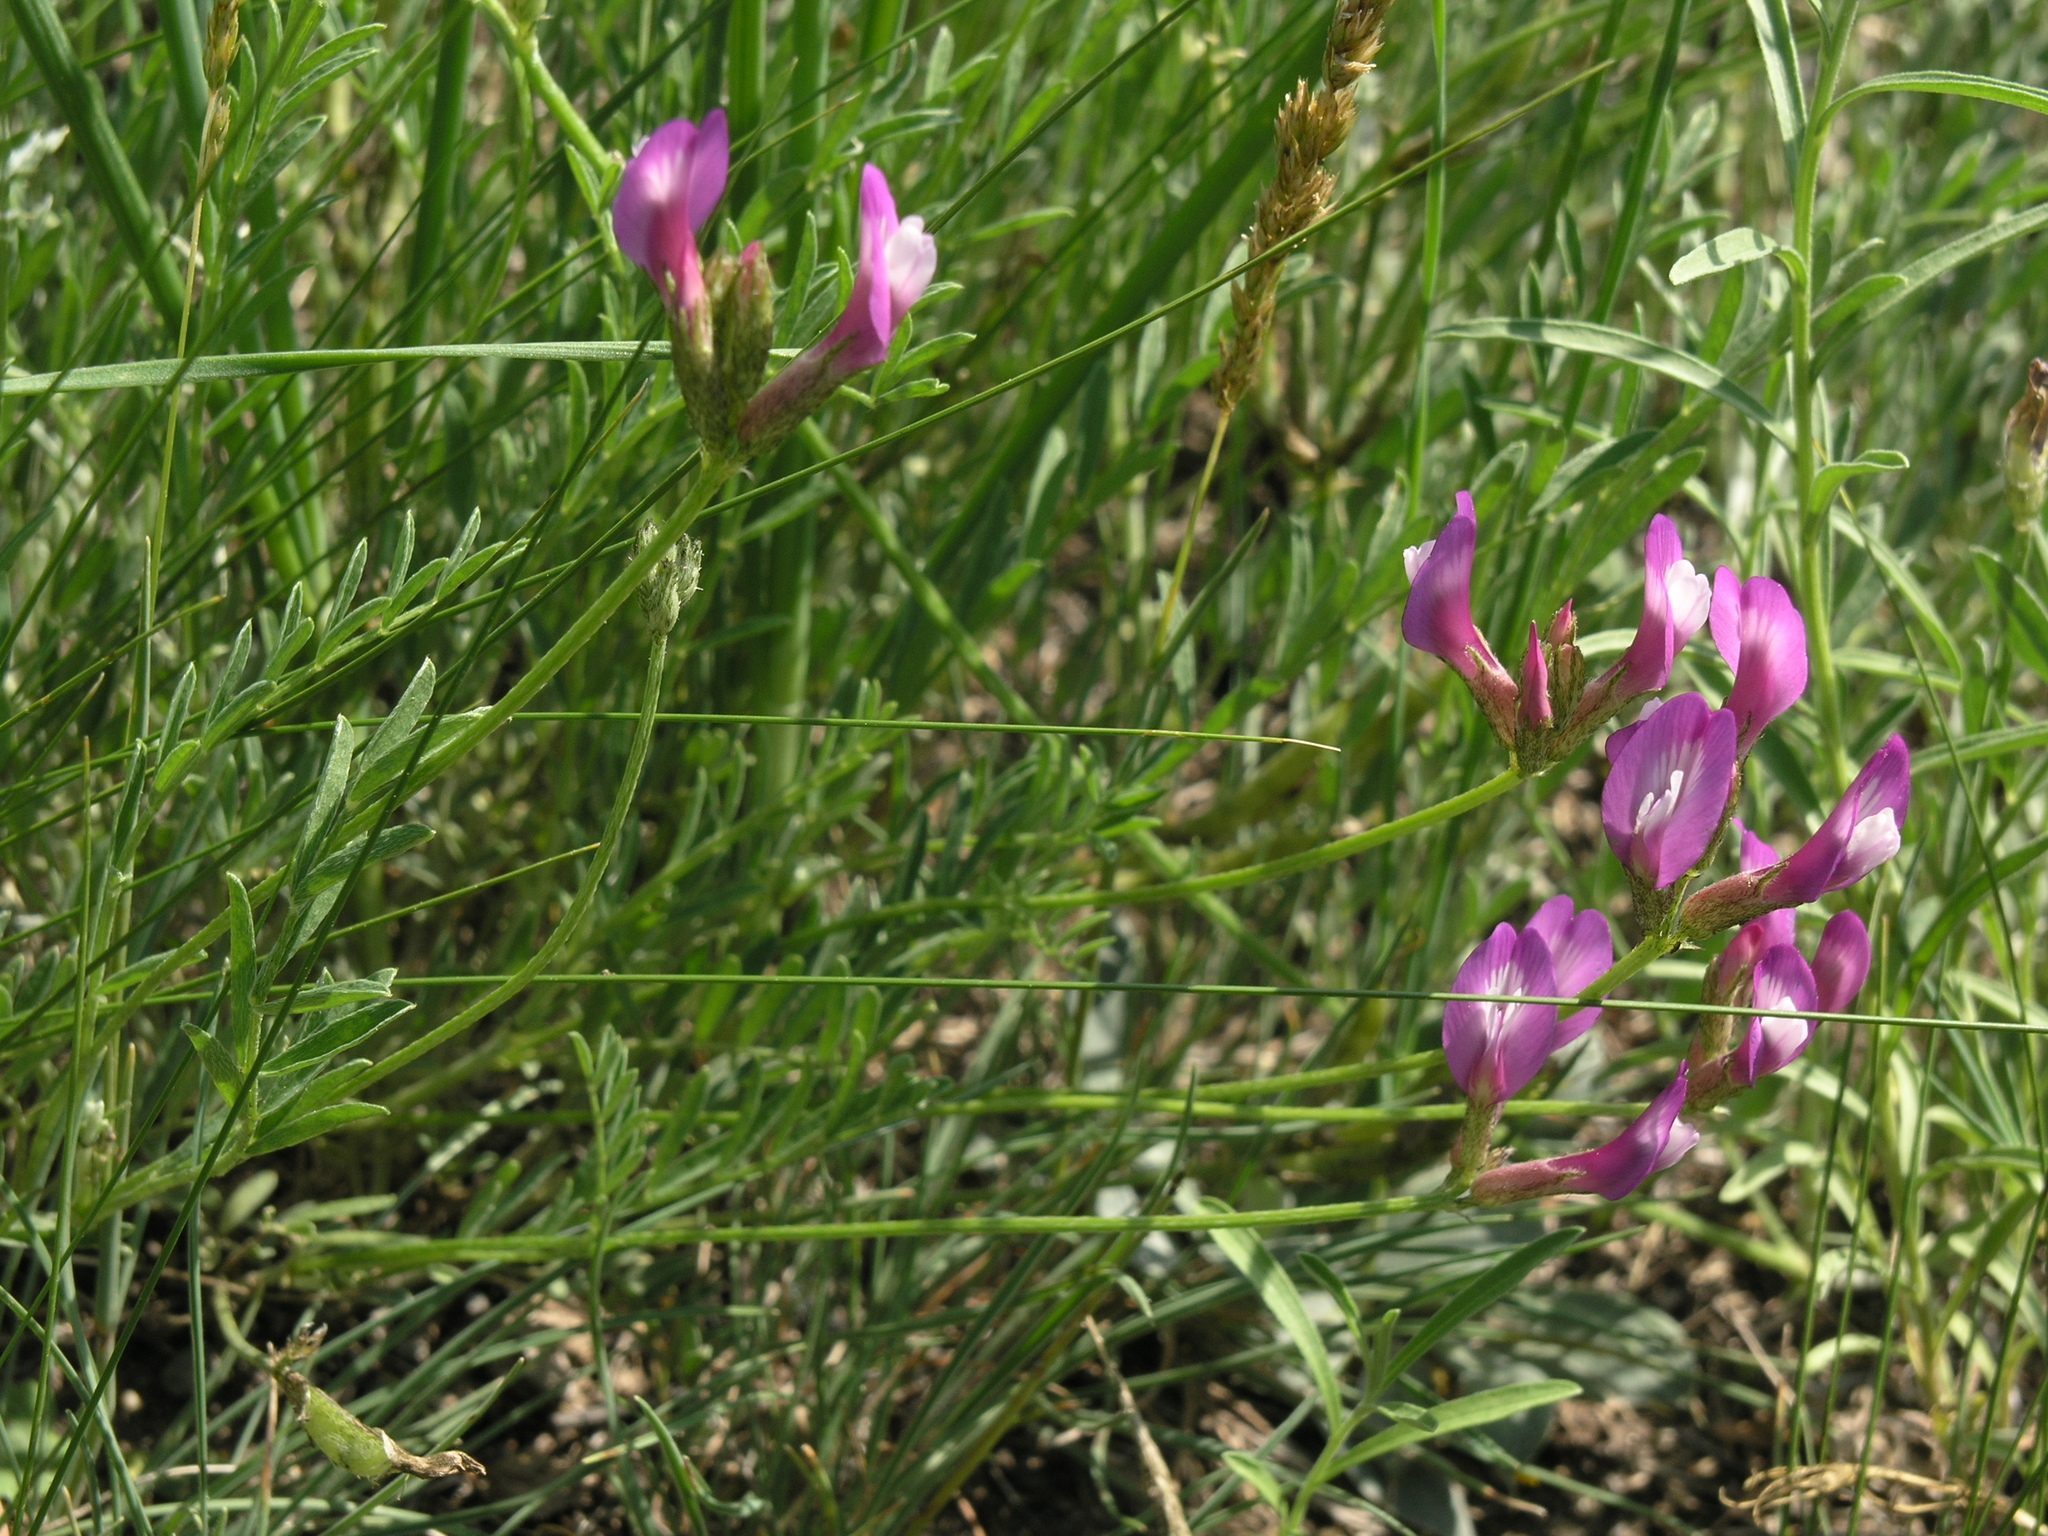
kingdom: Plantae
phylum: Tracheophyta
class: Magnoliopsida
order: Fabales
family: Fabaceae
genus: Astragalus
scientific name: Astragalus ceratoides
